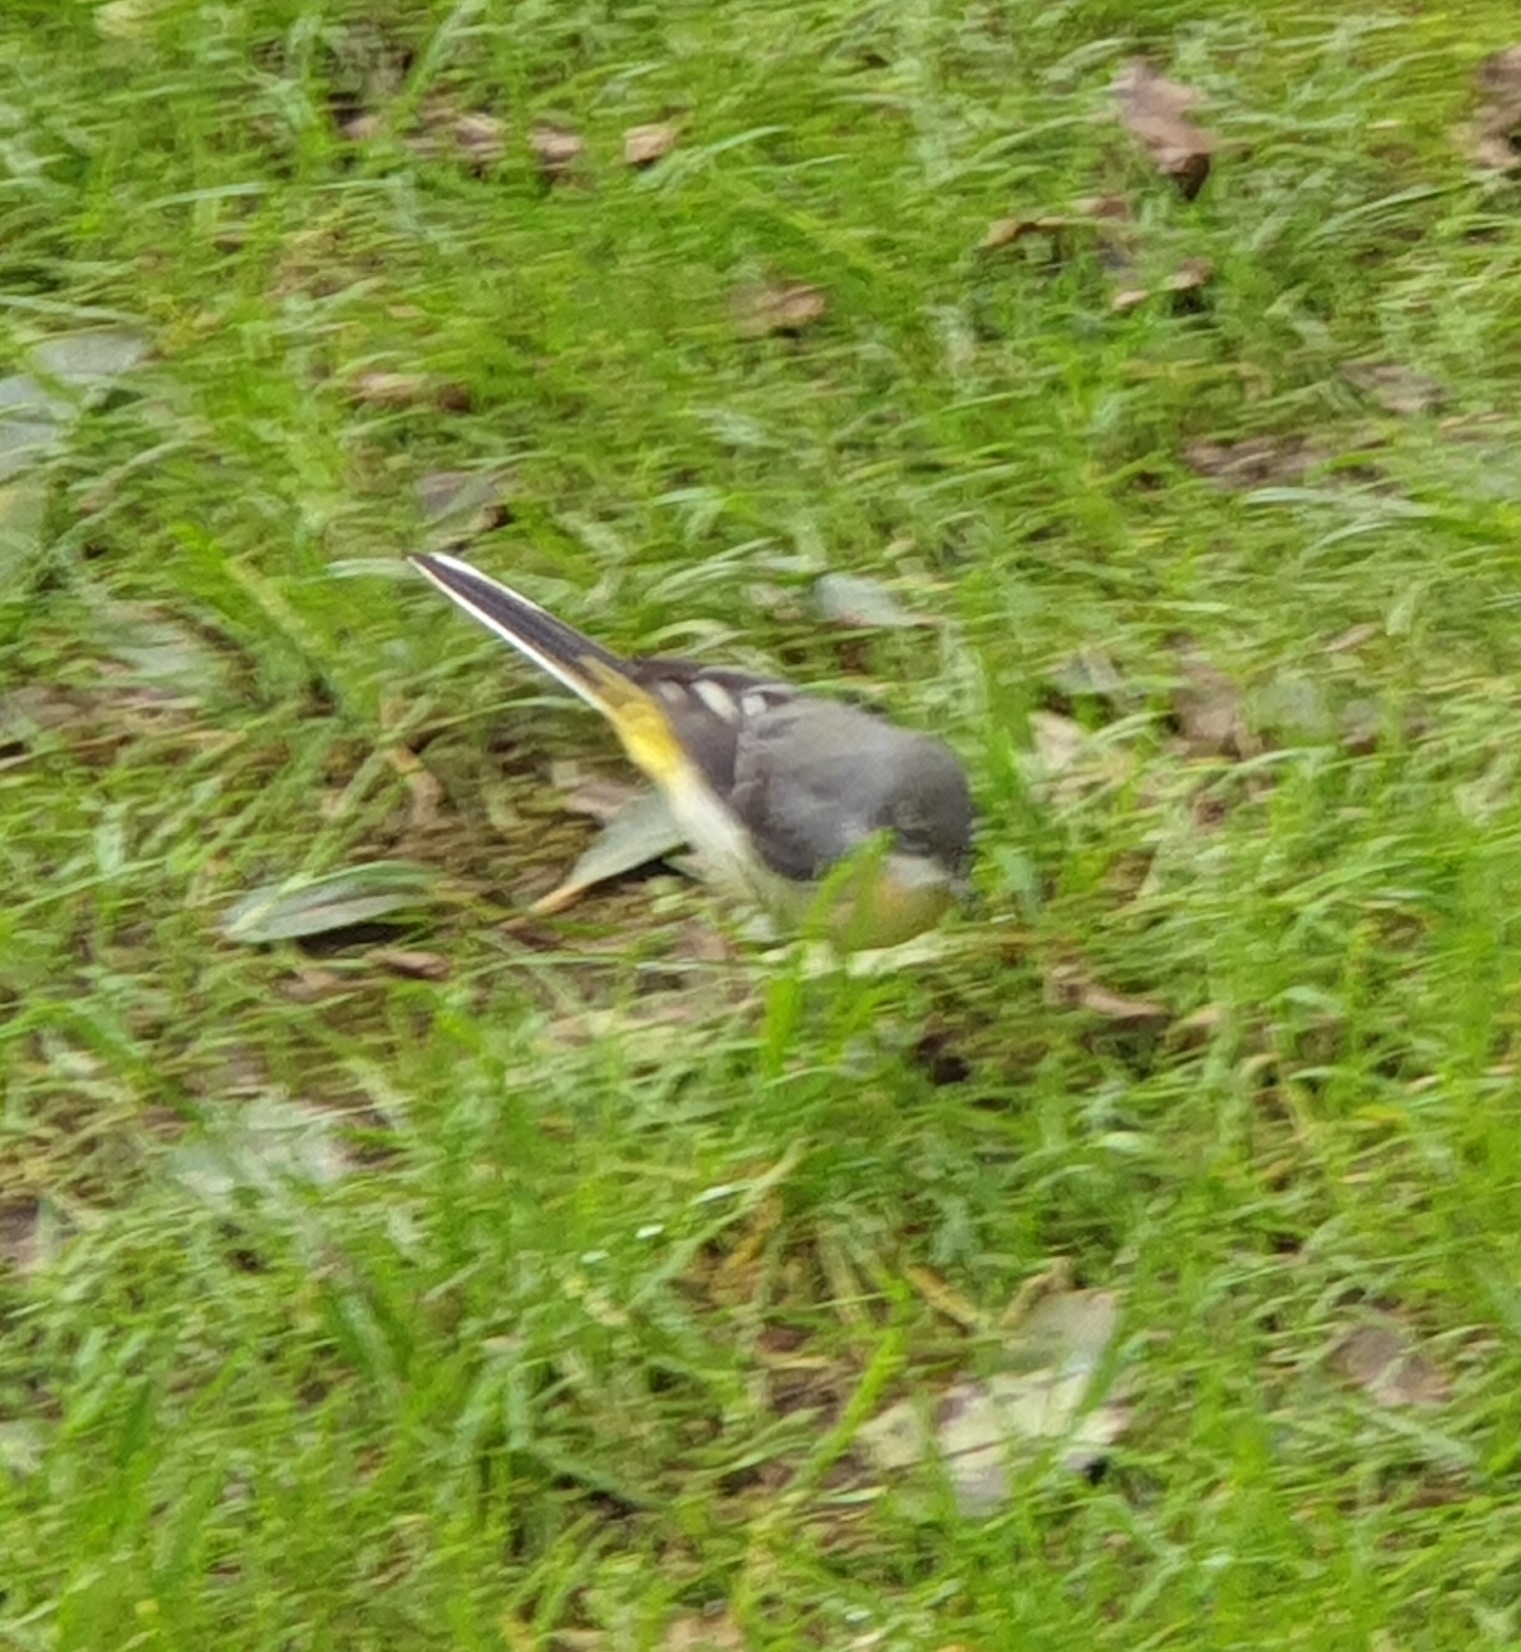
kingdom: Animalia
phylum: Chordata
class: Aves
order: Passeriformes
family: Motacillidae
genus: Motacilla
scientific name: Motacilla cinerea
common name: Grey wagtail
